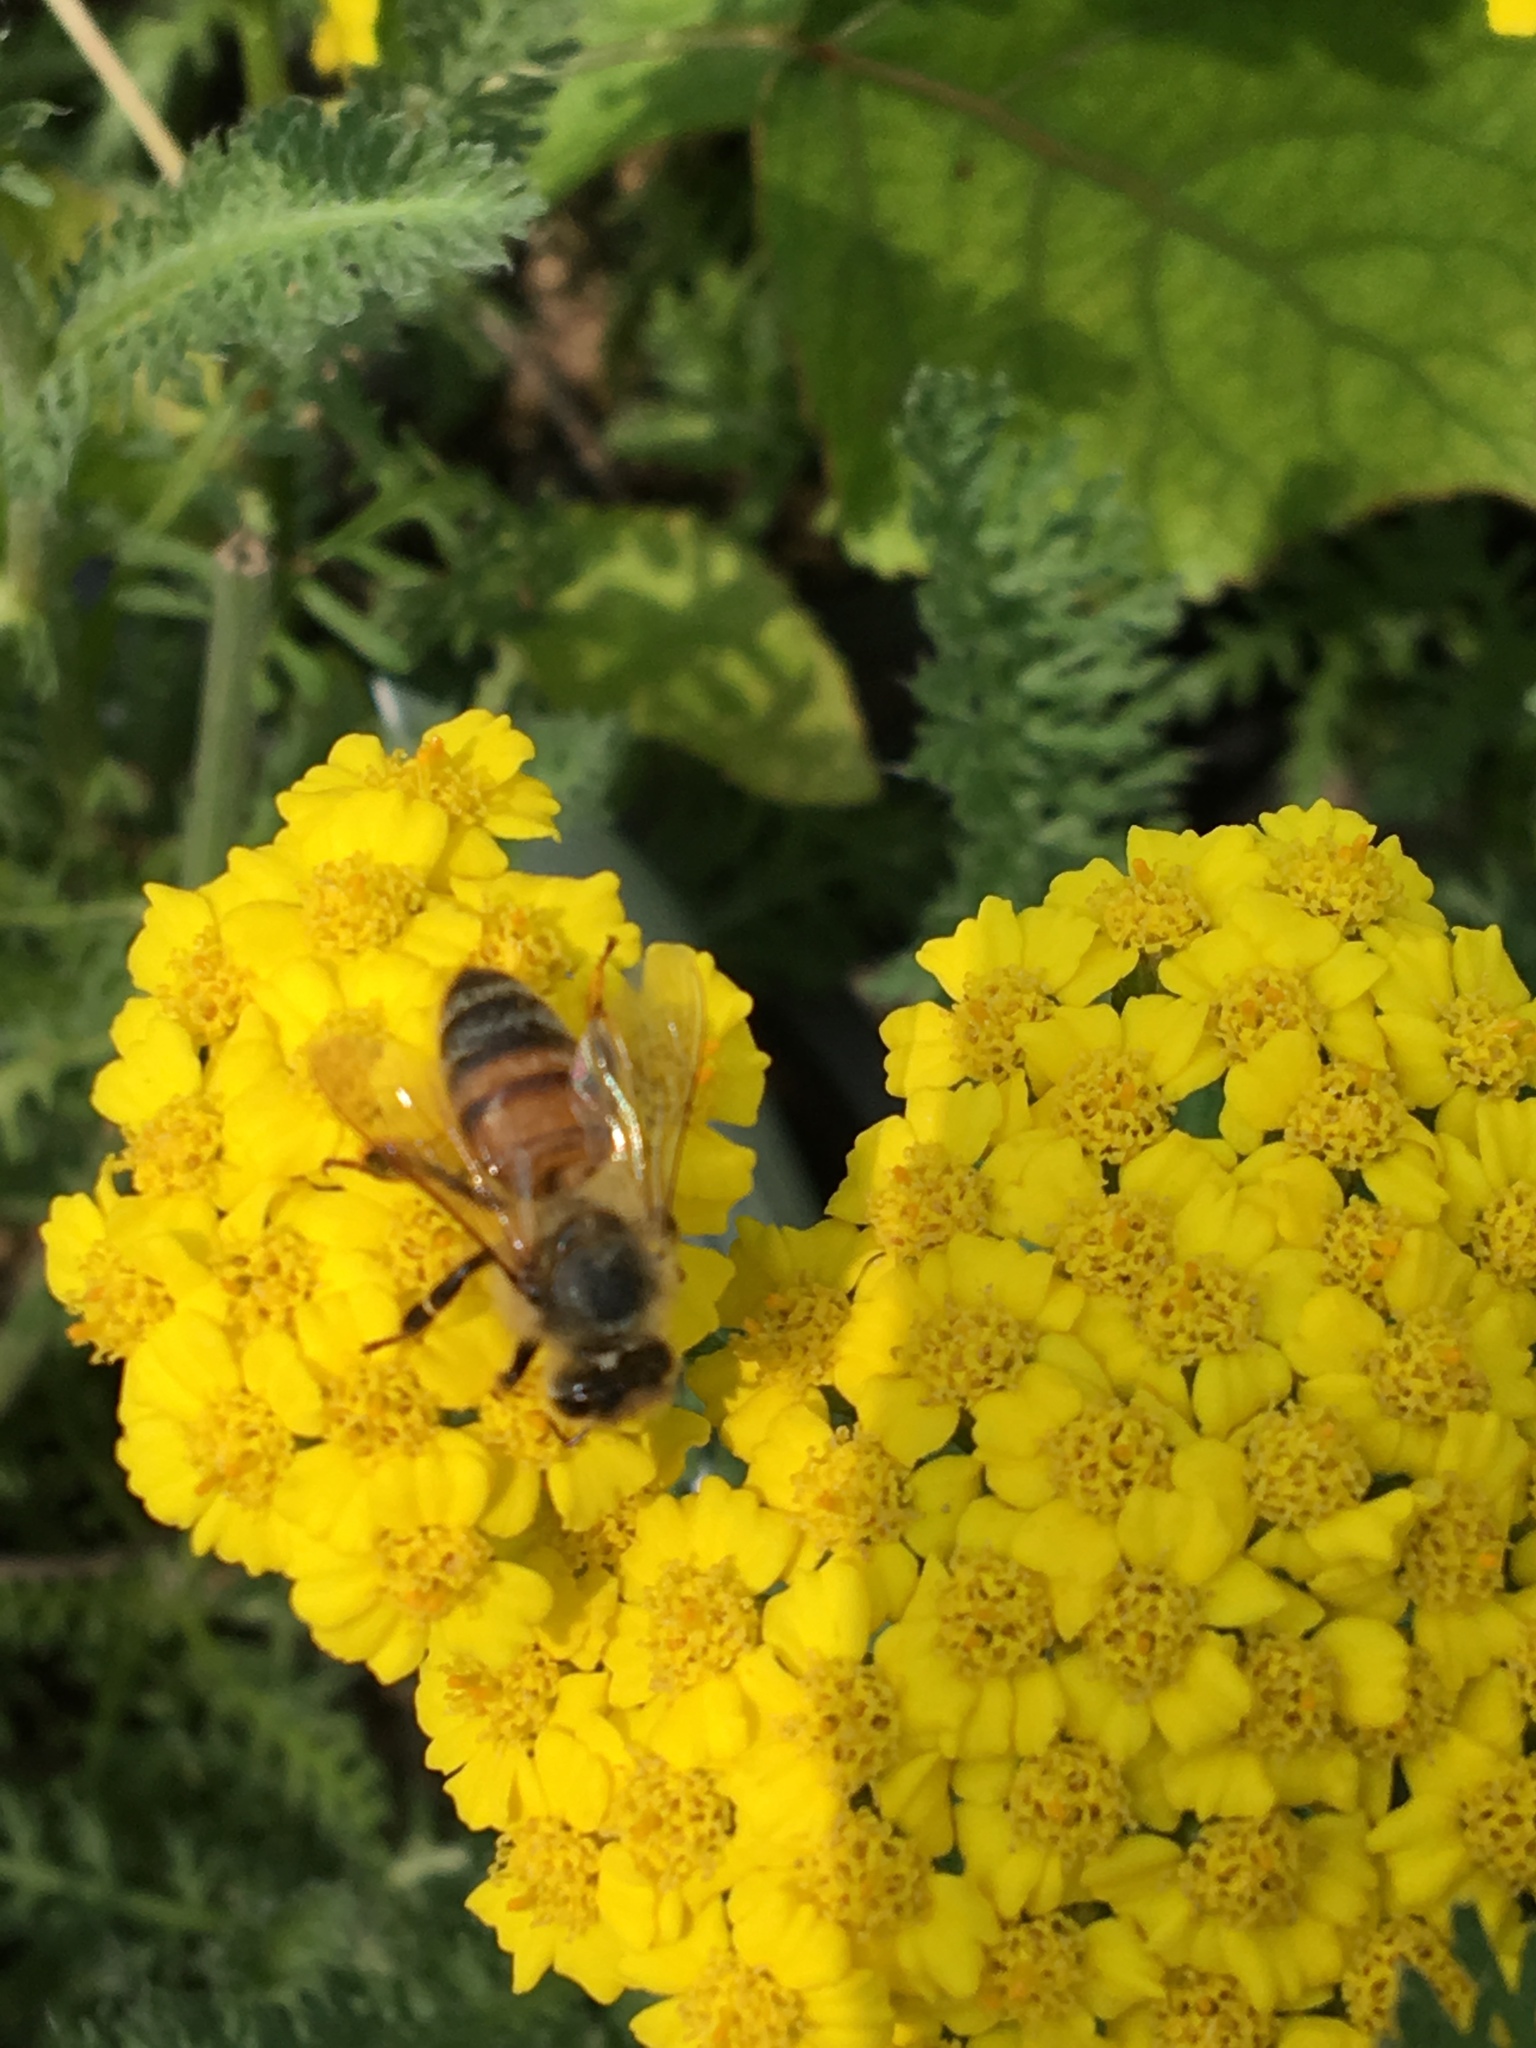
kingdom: Animalia
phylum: Arthropoda
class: Insecta
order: Hymenoptera
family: Apidae
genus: Apis
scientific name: Apis mellifera
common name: Honey bee
